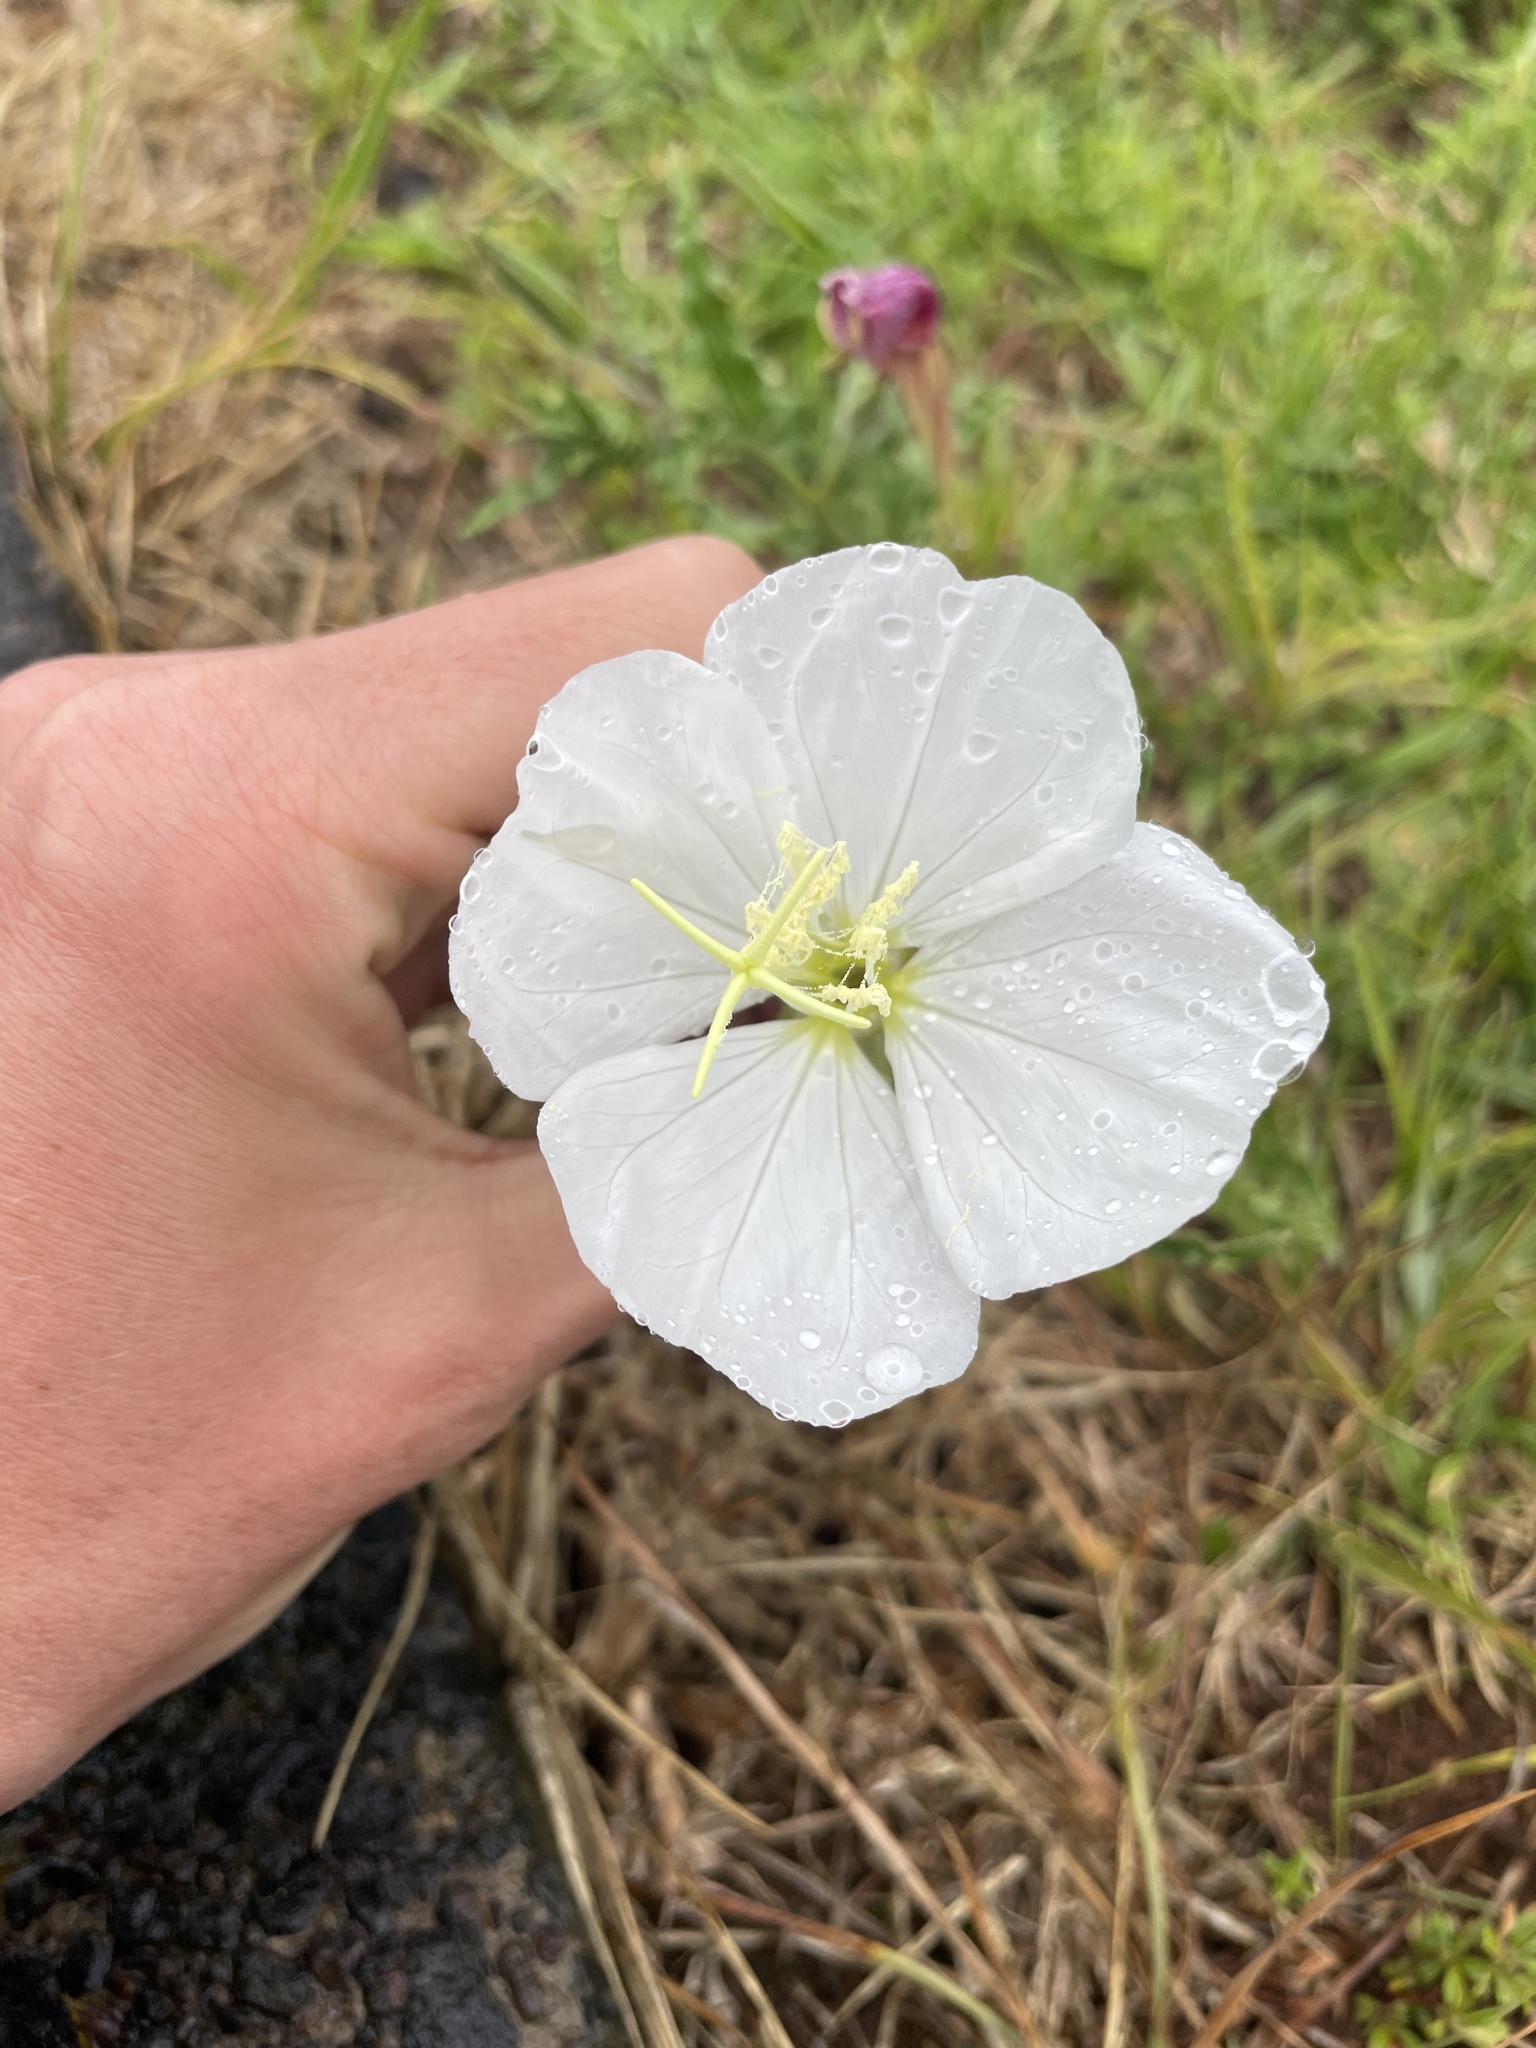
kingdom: Plantae
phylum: Tracheophyta
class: Magnoliopsida
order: Myrtales
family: Onagraceae
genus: Oenothera
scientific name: Oenothera tetraptera
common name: Four-wing evening-primrose
